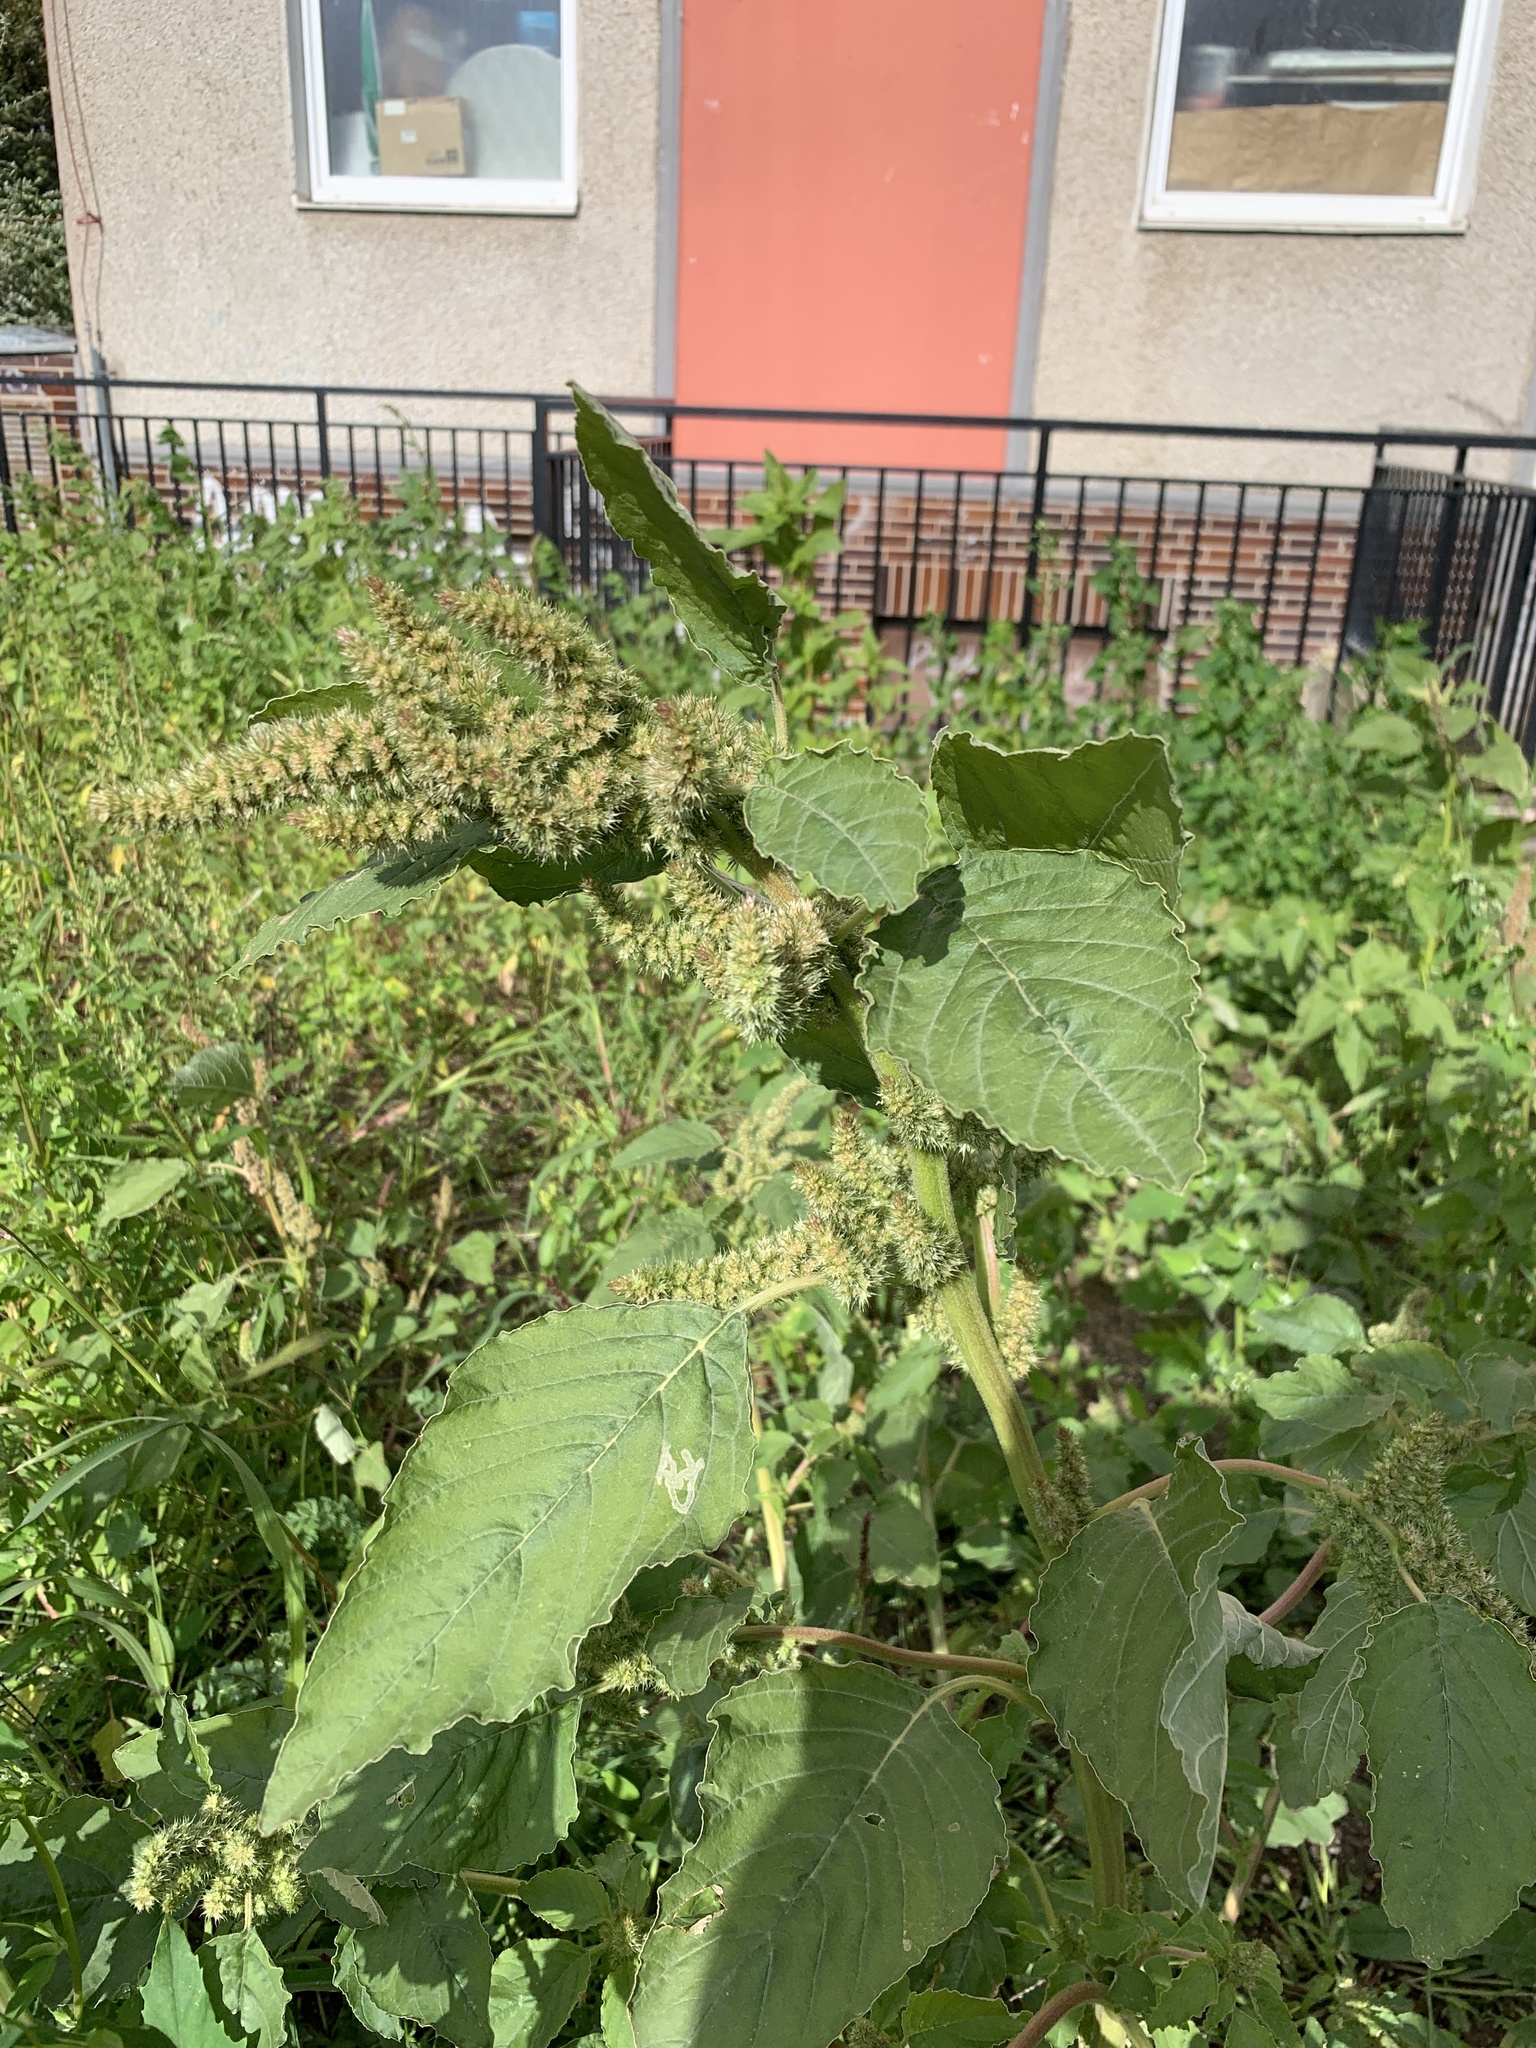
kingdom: Plantae
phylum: Tracheophyta
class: Magnoliopsida
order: Caryophyllales
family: Amaranthaceae
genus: Amaranthus
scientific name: Amaranthus retroflexus
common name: Redroot amaranth
